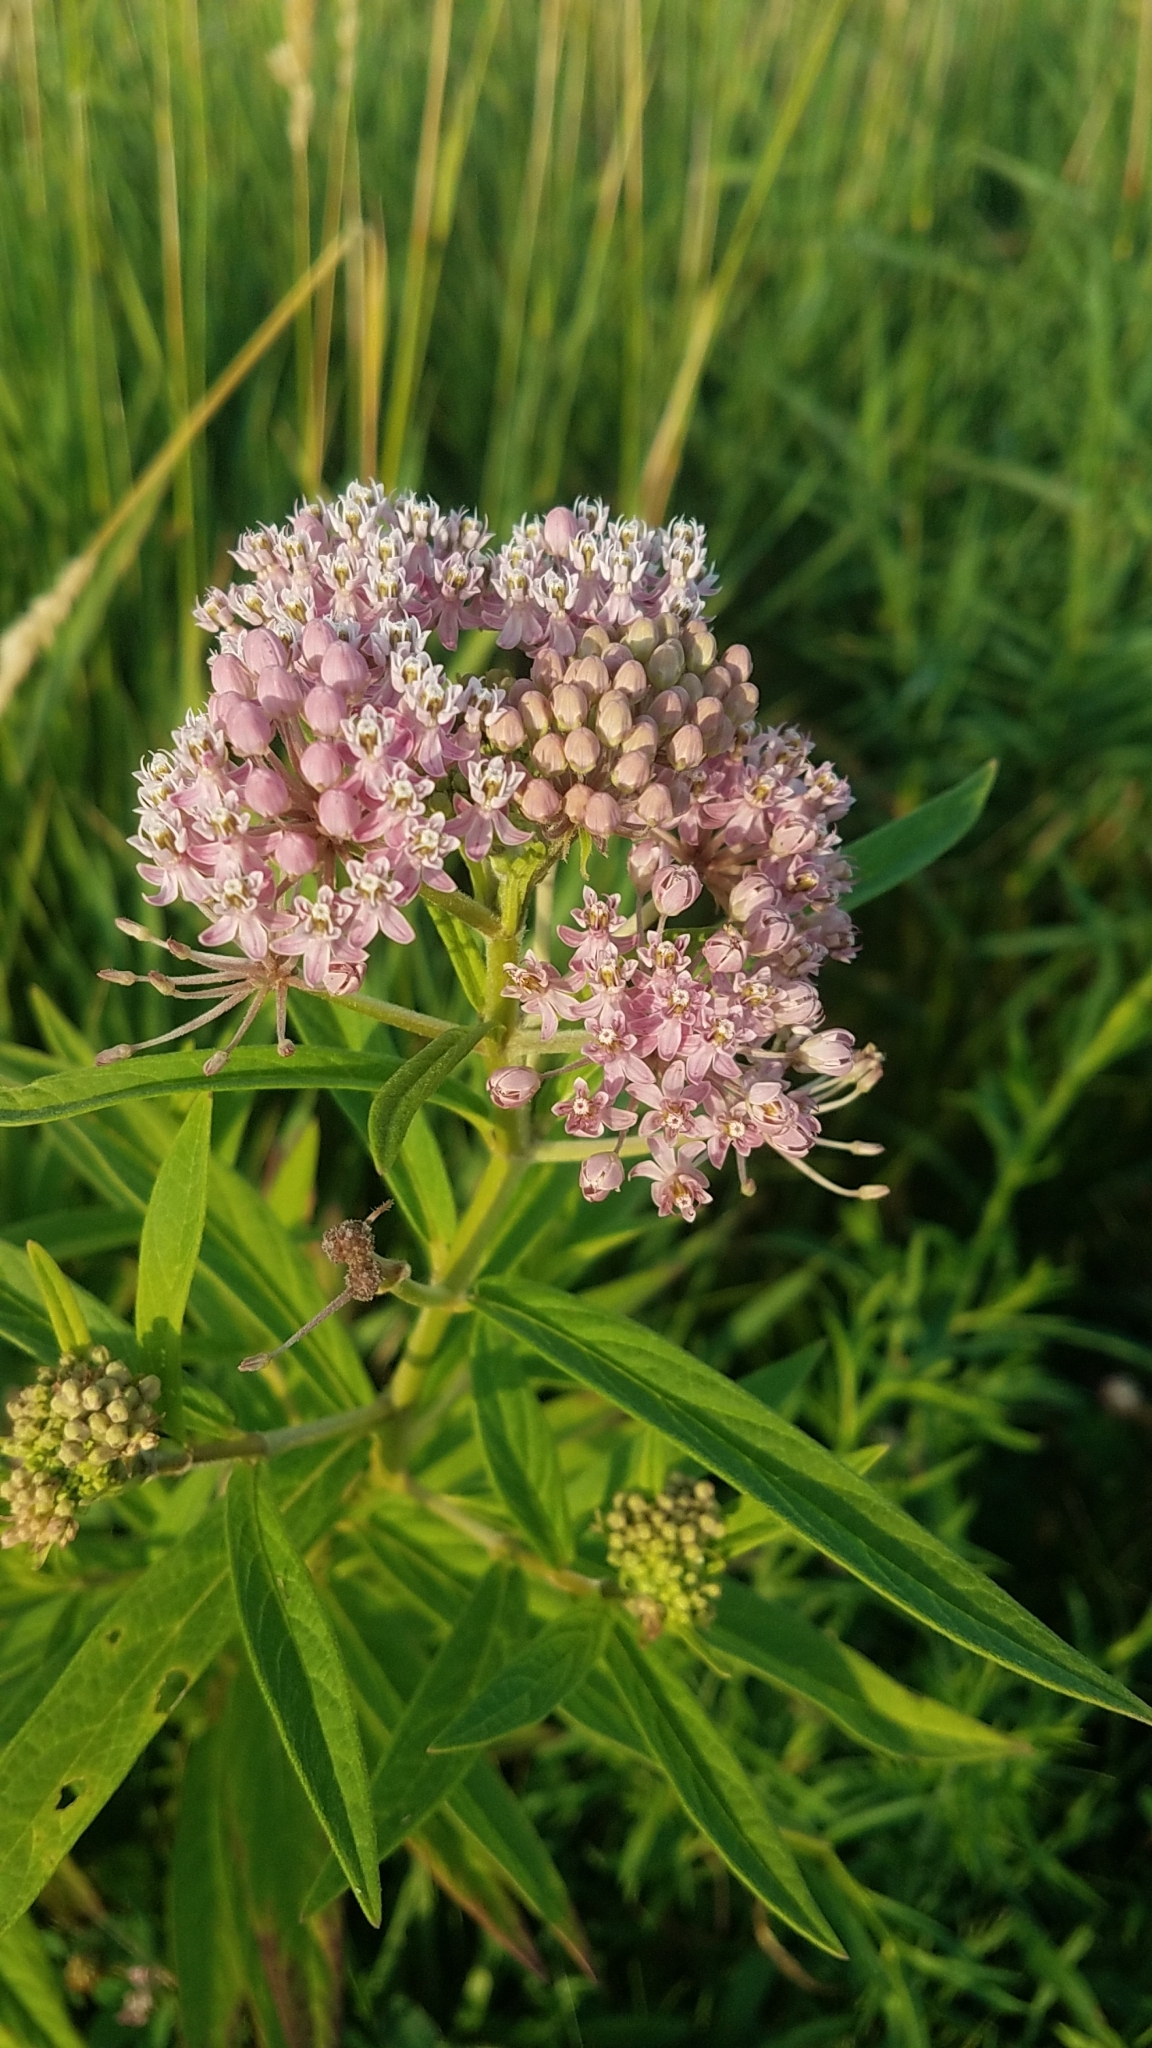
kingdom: Plantae
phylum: Tracheophyta
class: Magnoliopsida
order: Gentianales
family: Apocynaceae
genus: Asclepias
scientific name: Asclepias incarnata
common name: Swamp milkweed
